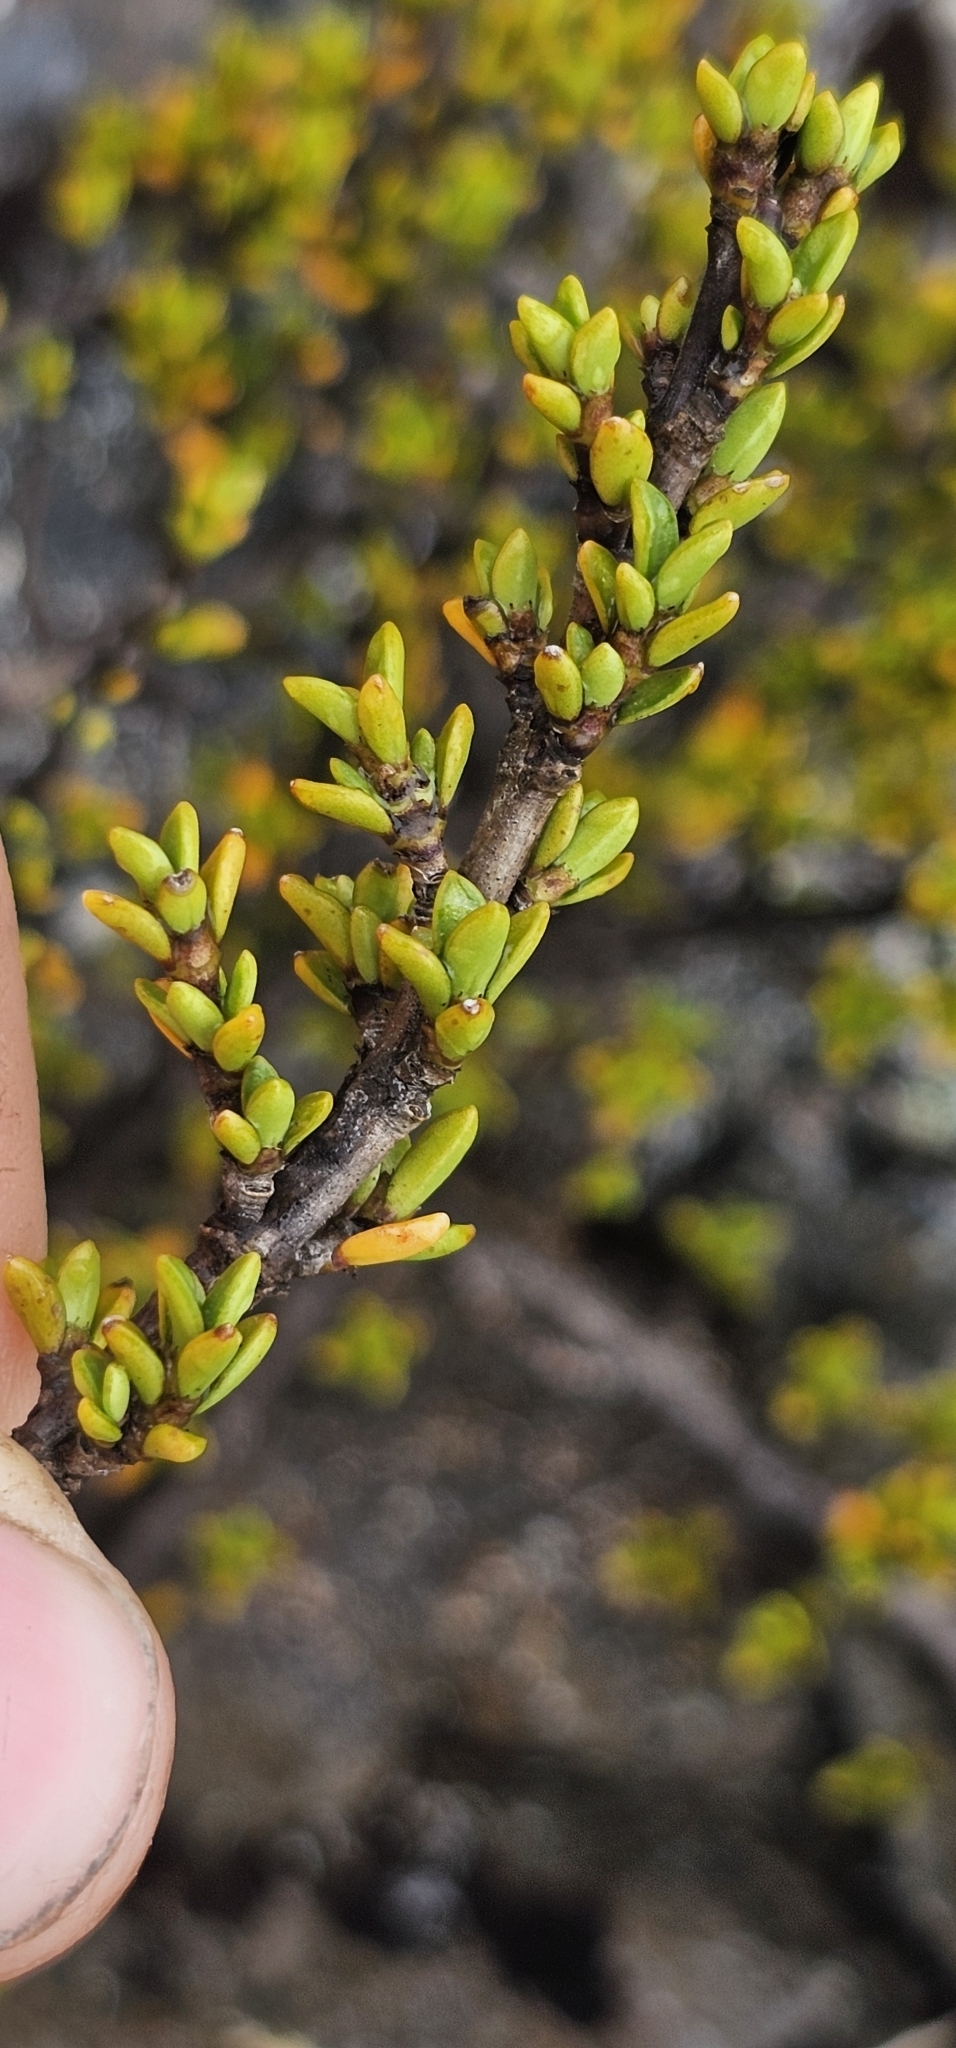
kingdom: Plantae
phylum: Tracheophyta
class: Magnoliopsida
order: Gentianales
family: Rubiaceae
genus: Coprosma
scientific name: Coprosma fowerakeri
